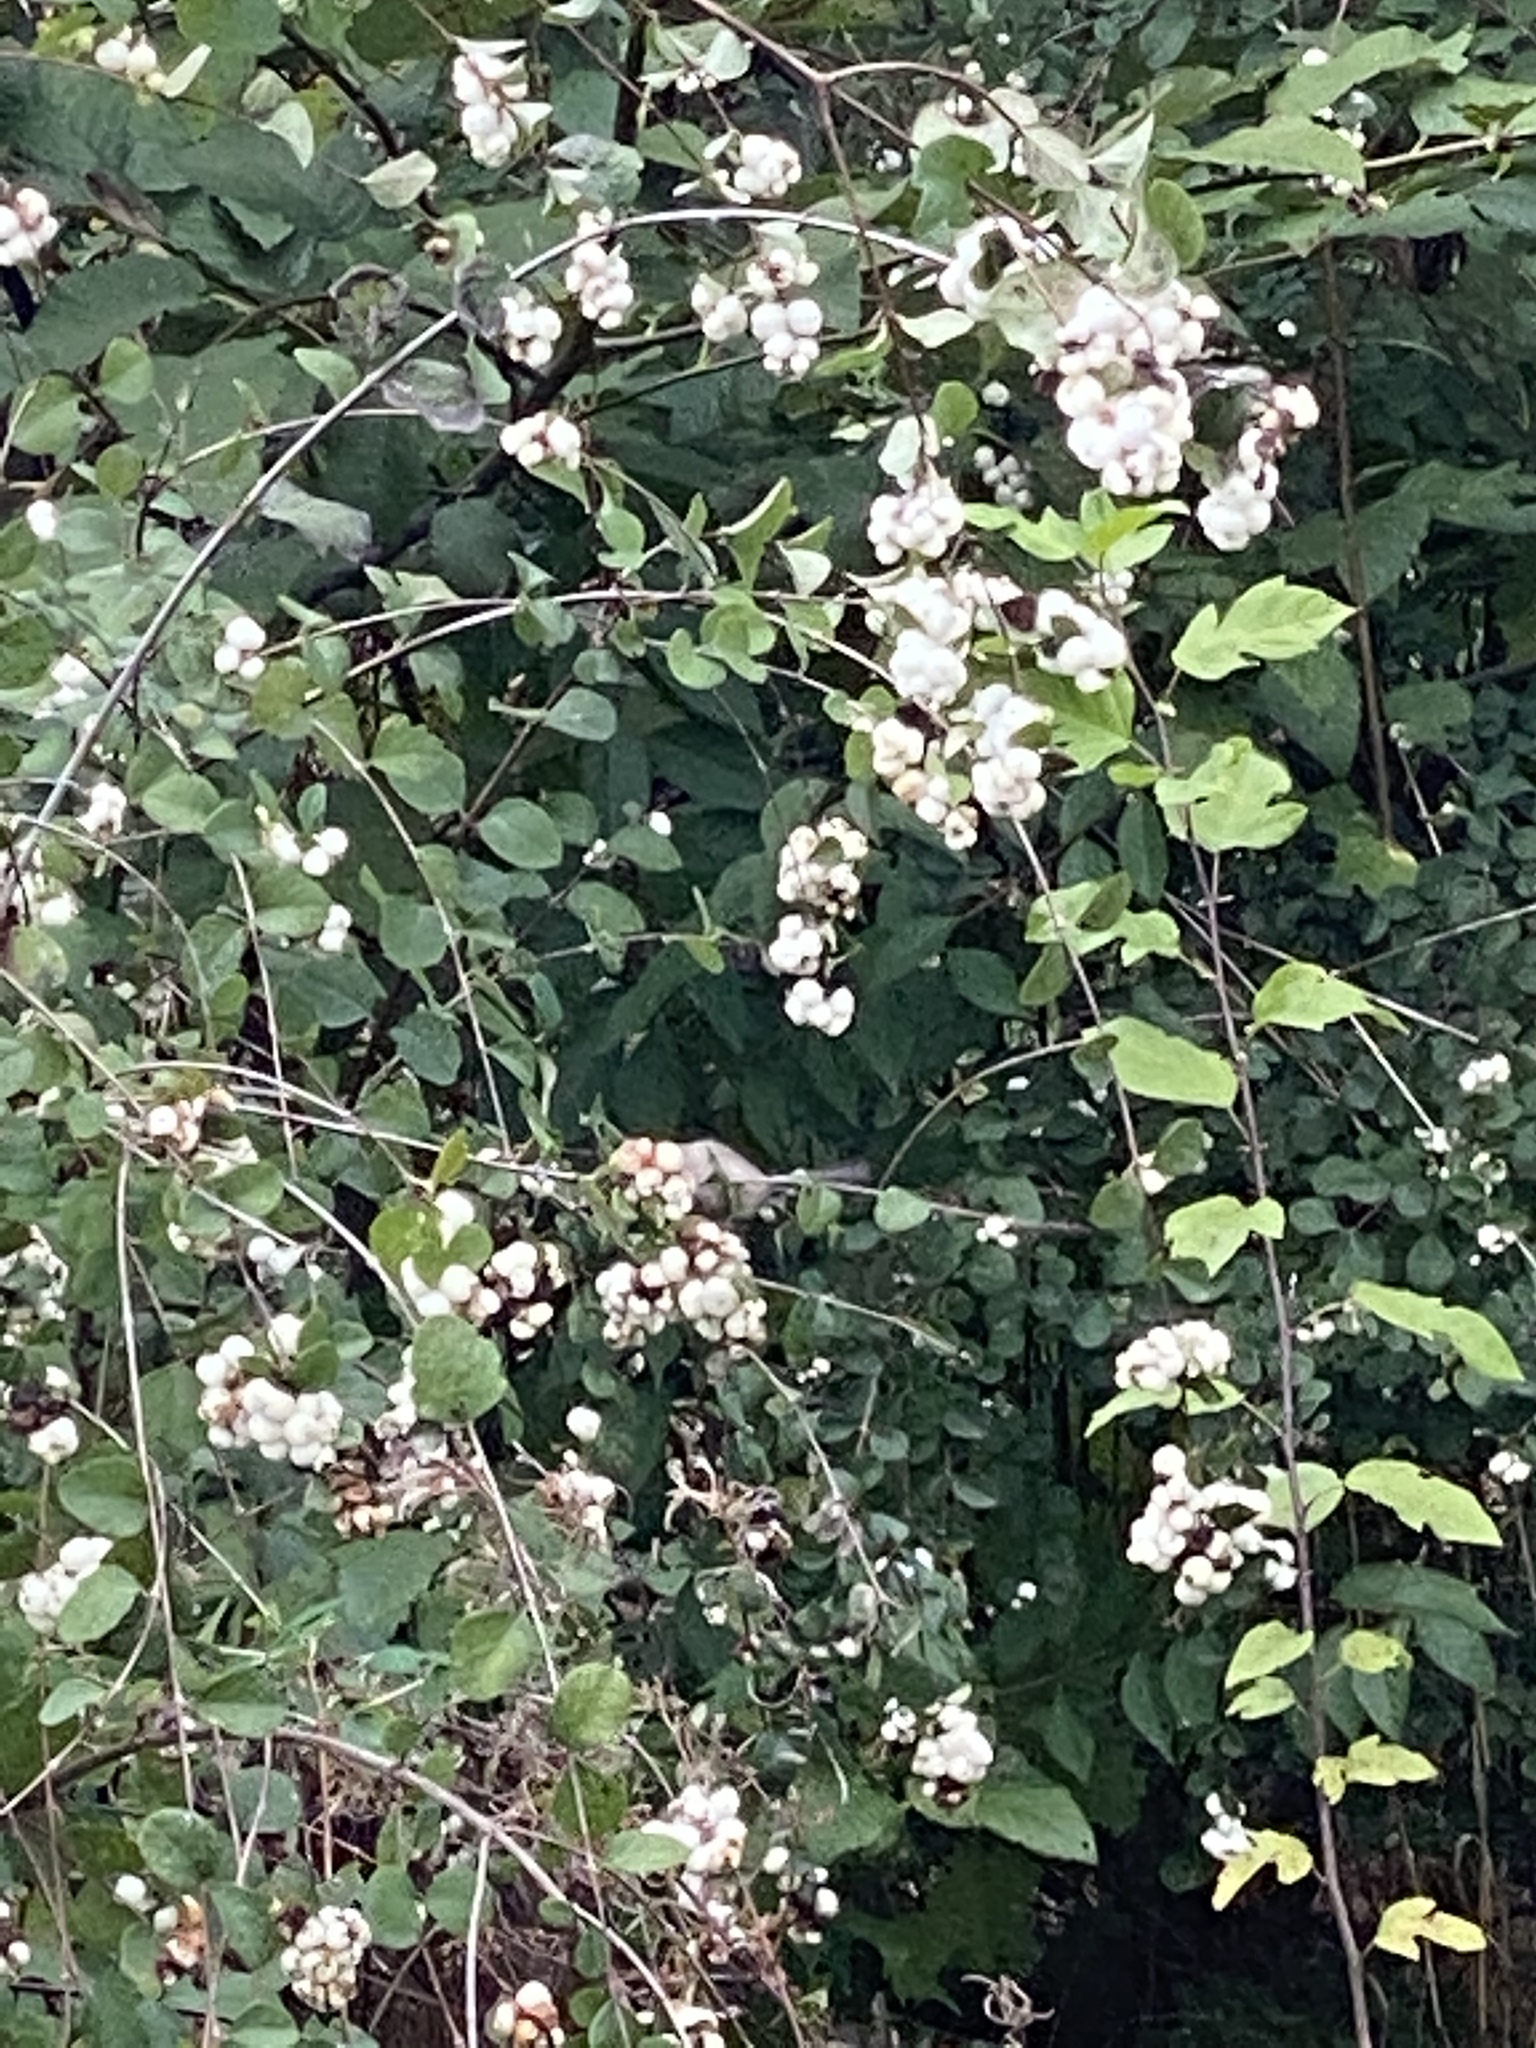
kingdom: Plantae
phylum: Tracheophyta
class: Magnoliopsida
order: Dipsacales
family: Caprifoliaceae
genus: Symphoricarpos
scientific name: Symphoricarpos albus
